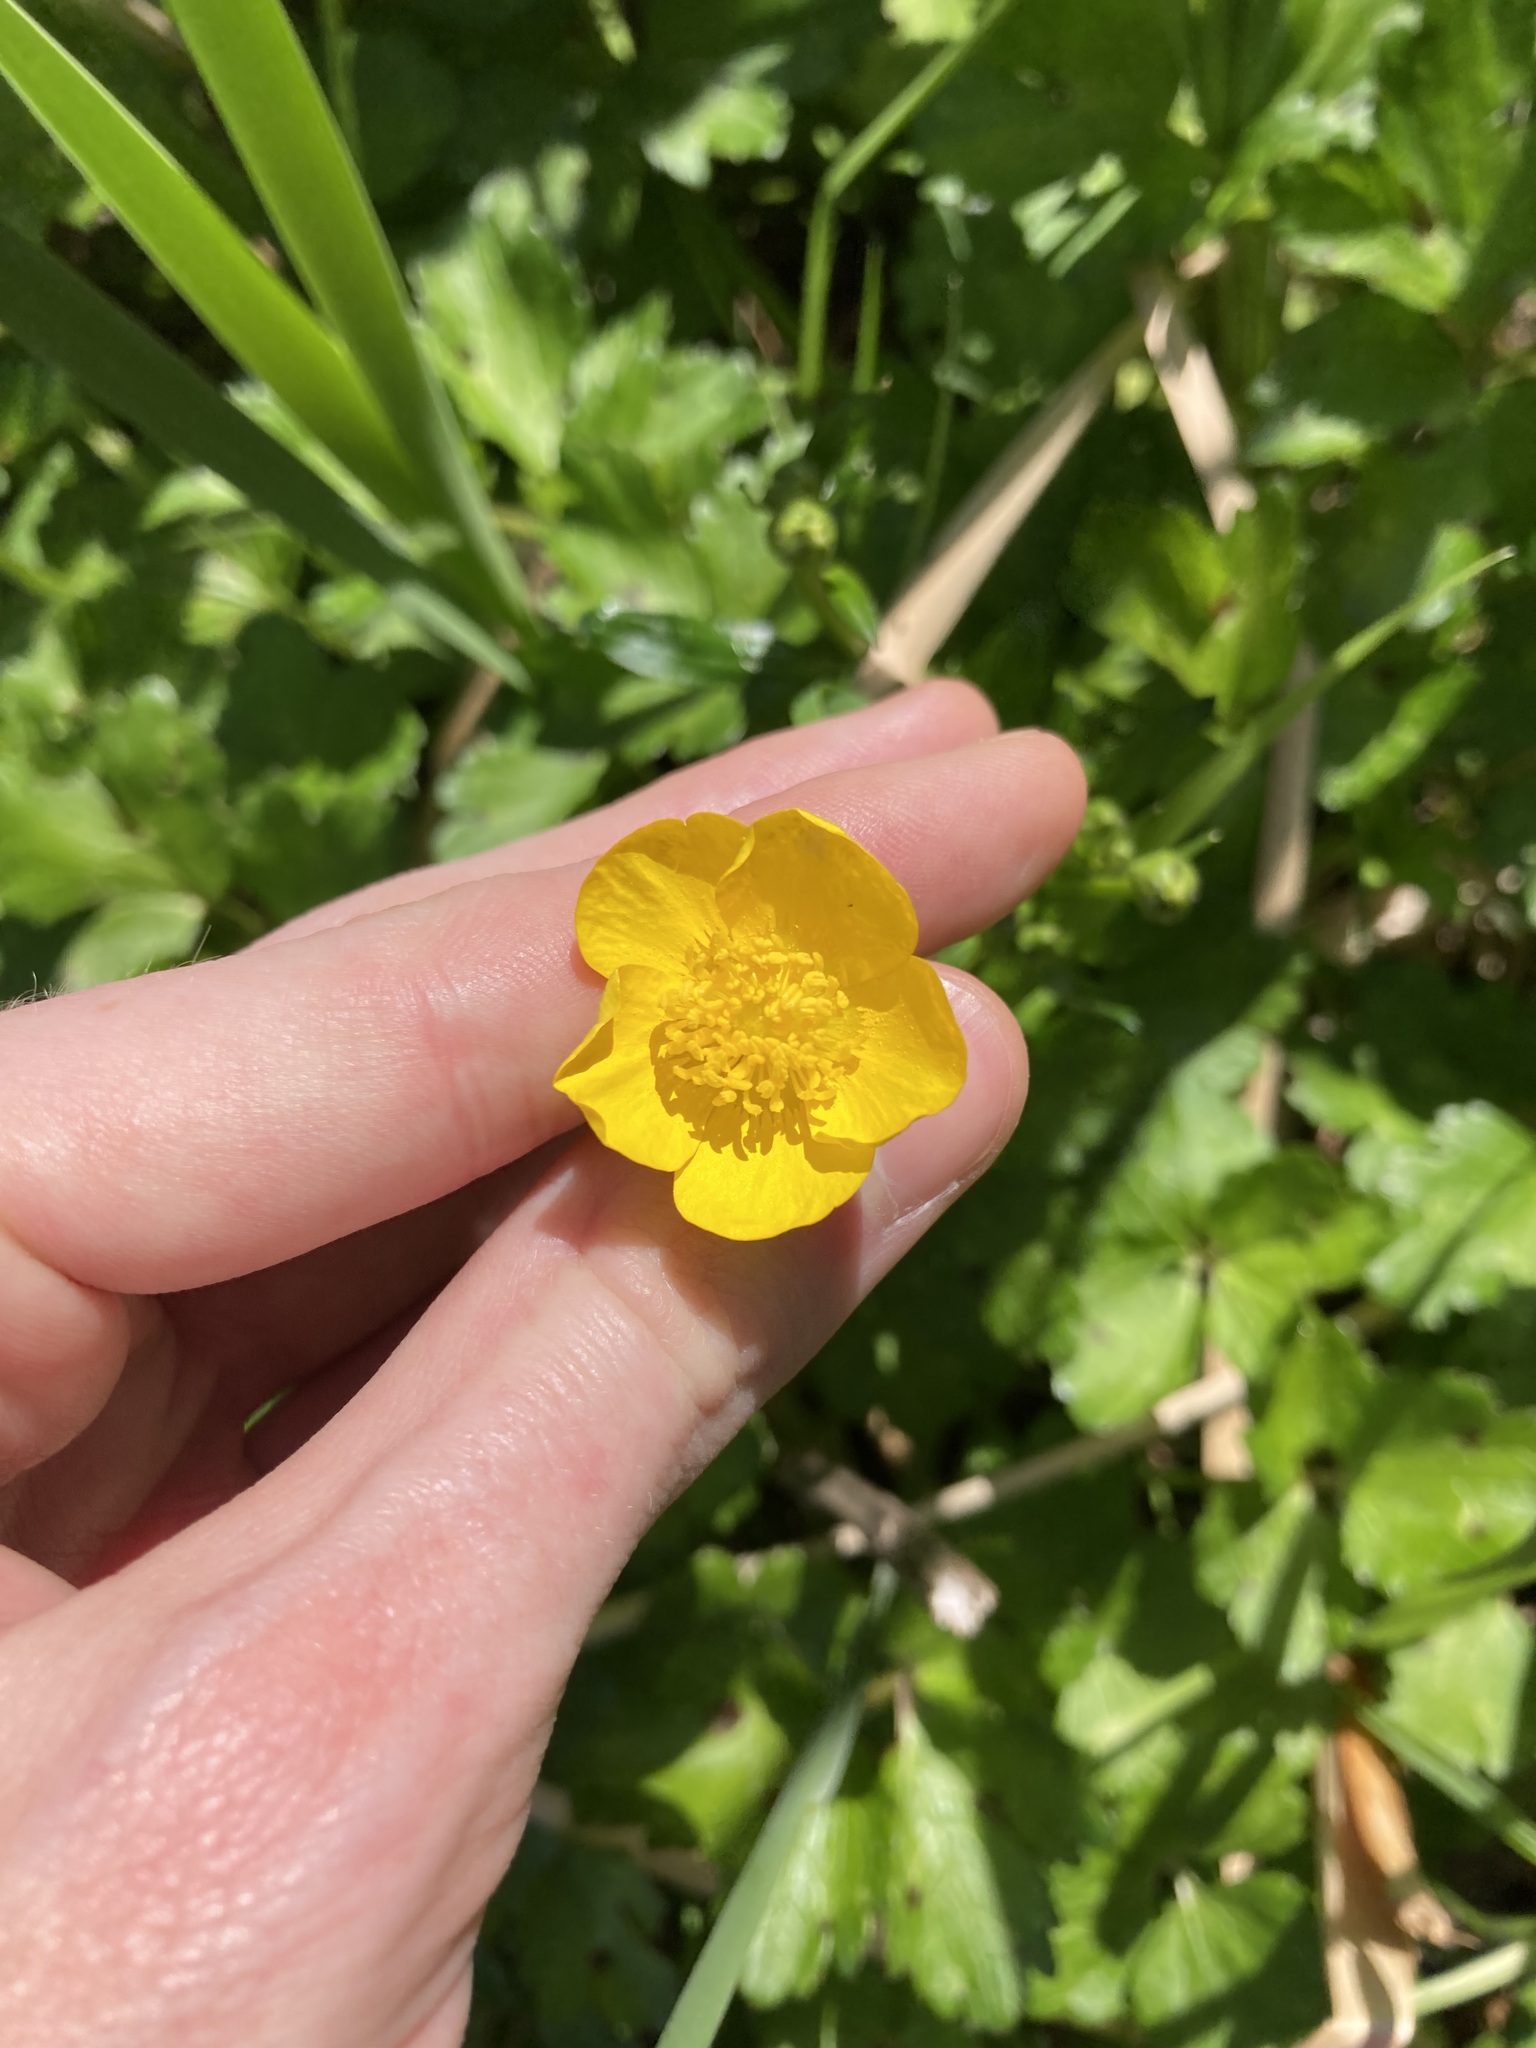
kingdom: Plantae
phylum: Tracheophyta
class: Magnoliopsida
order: Ranunculales
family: Ranunculaceae
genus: Ranunculus
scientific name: Ranunculus repens
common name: Creeping buttercup
